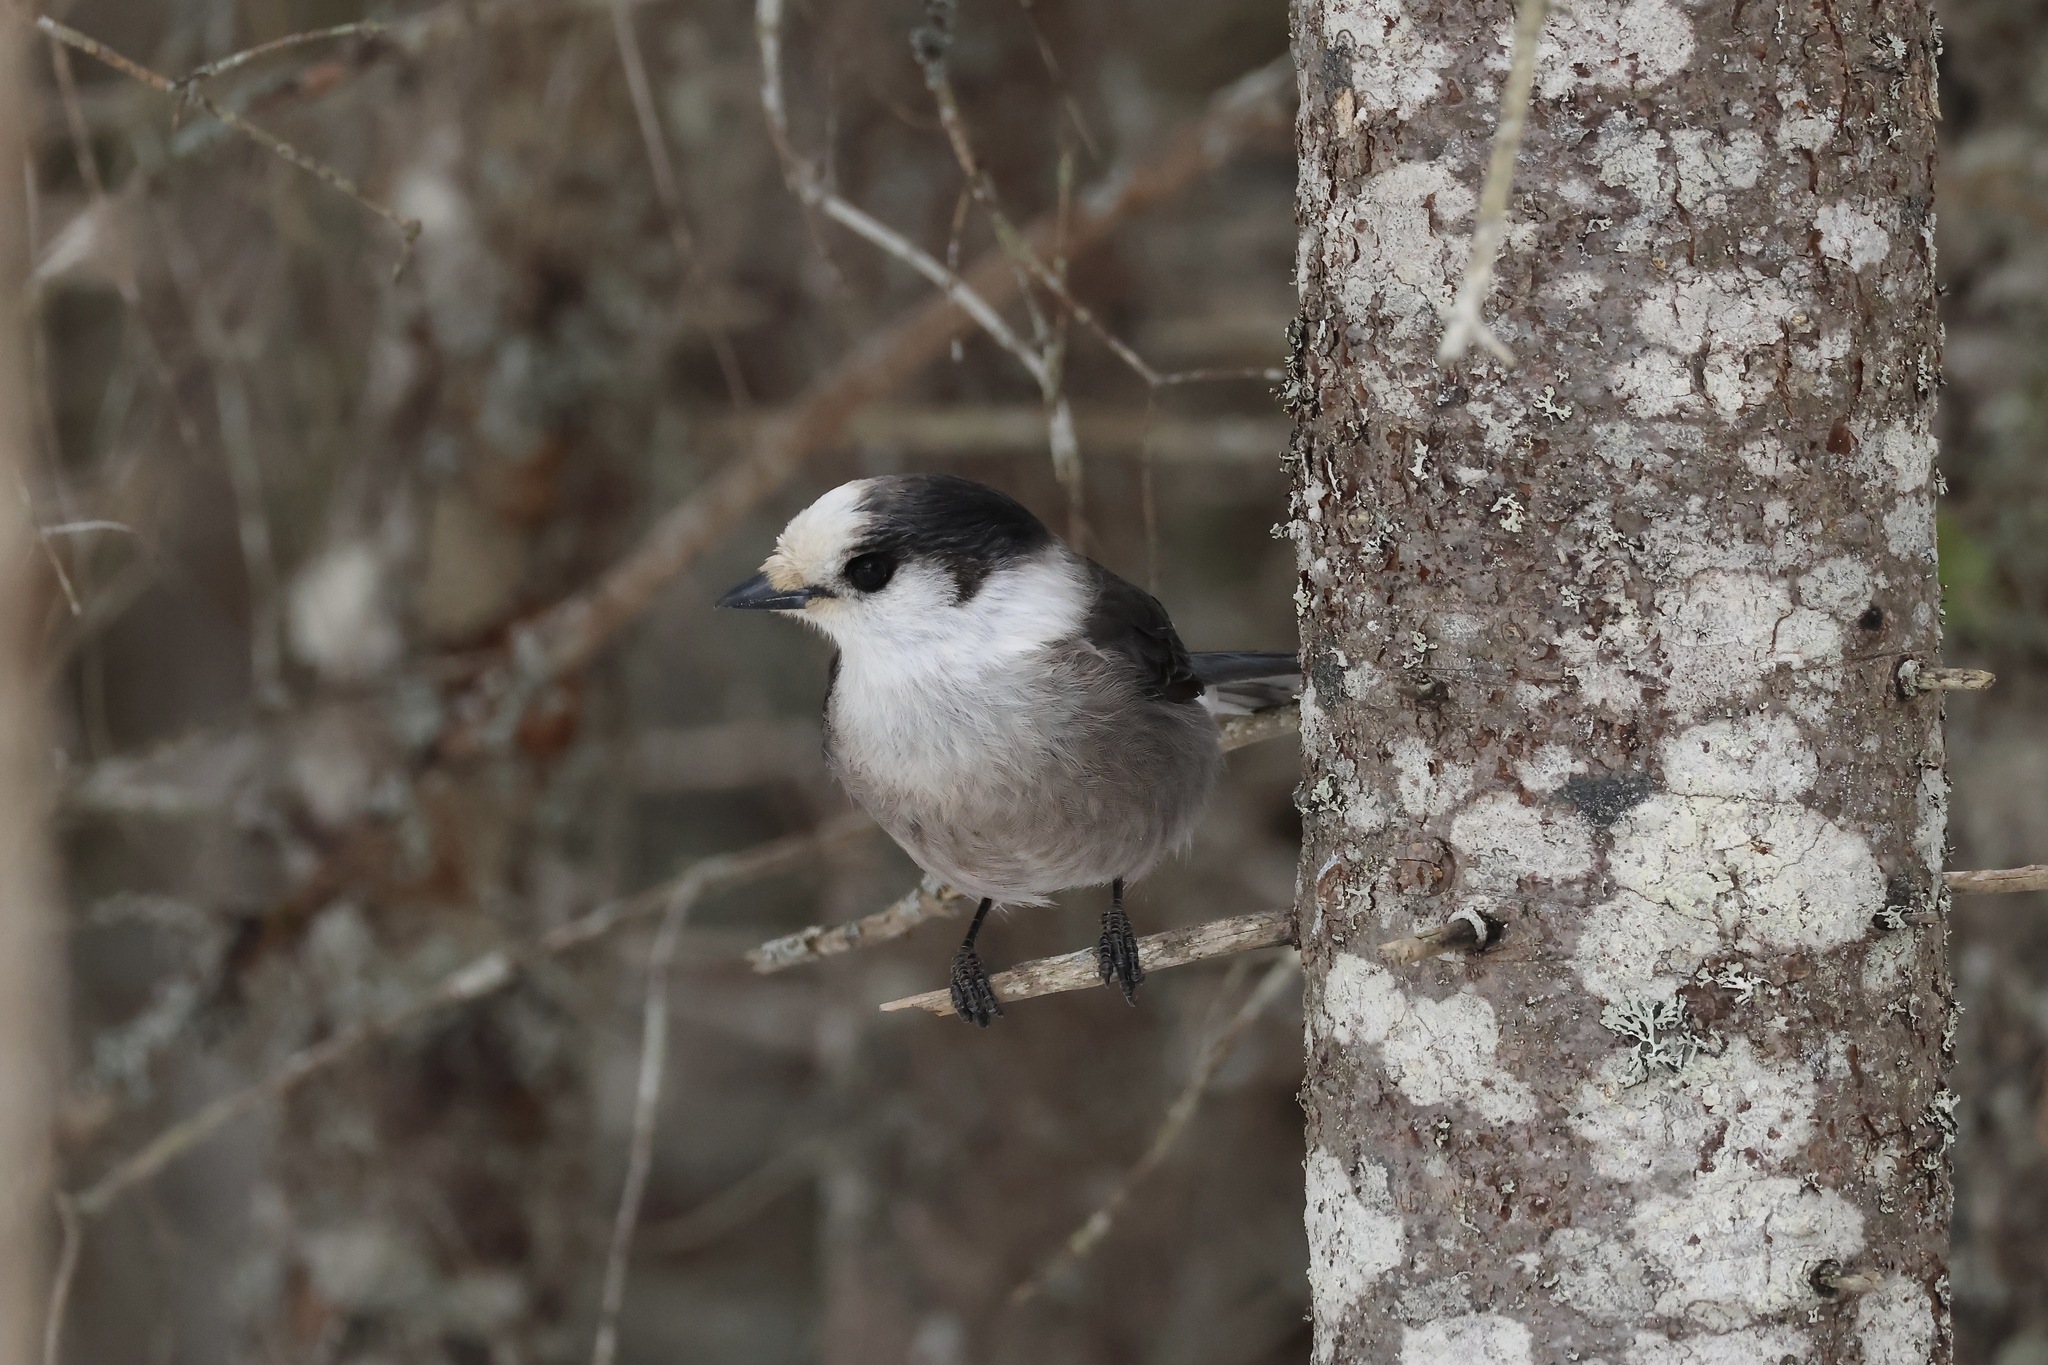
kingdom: Animalia
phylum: Chordata
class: Aves
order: Passeriformes
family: Corvidae
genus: Perisoreus
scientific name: Perisoreus canadensis
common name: Gray jay
